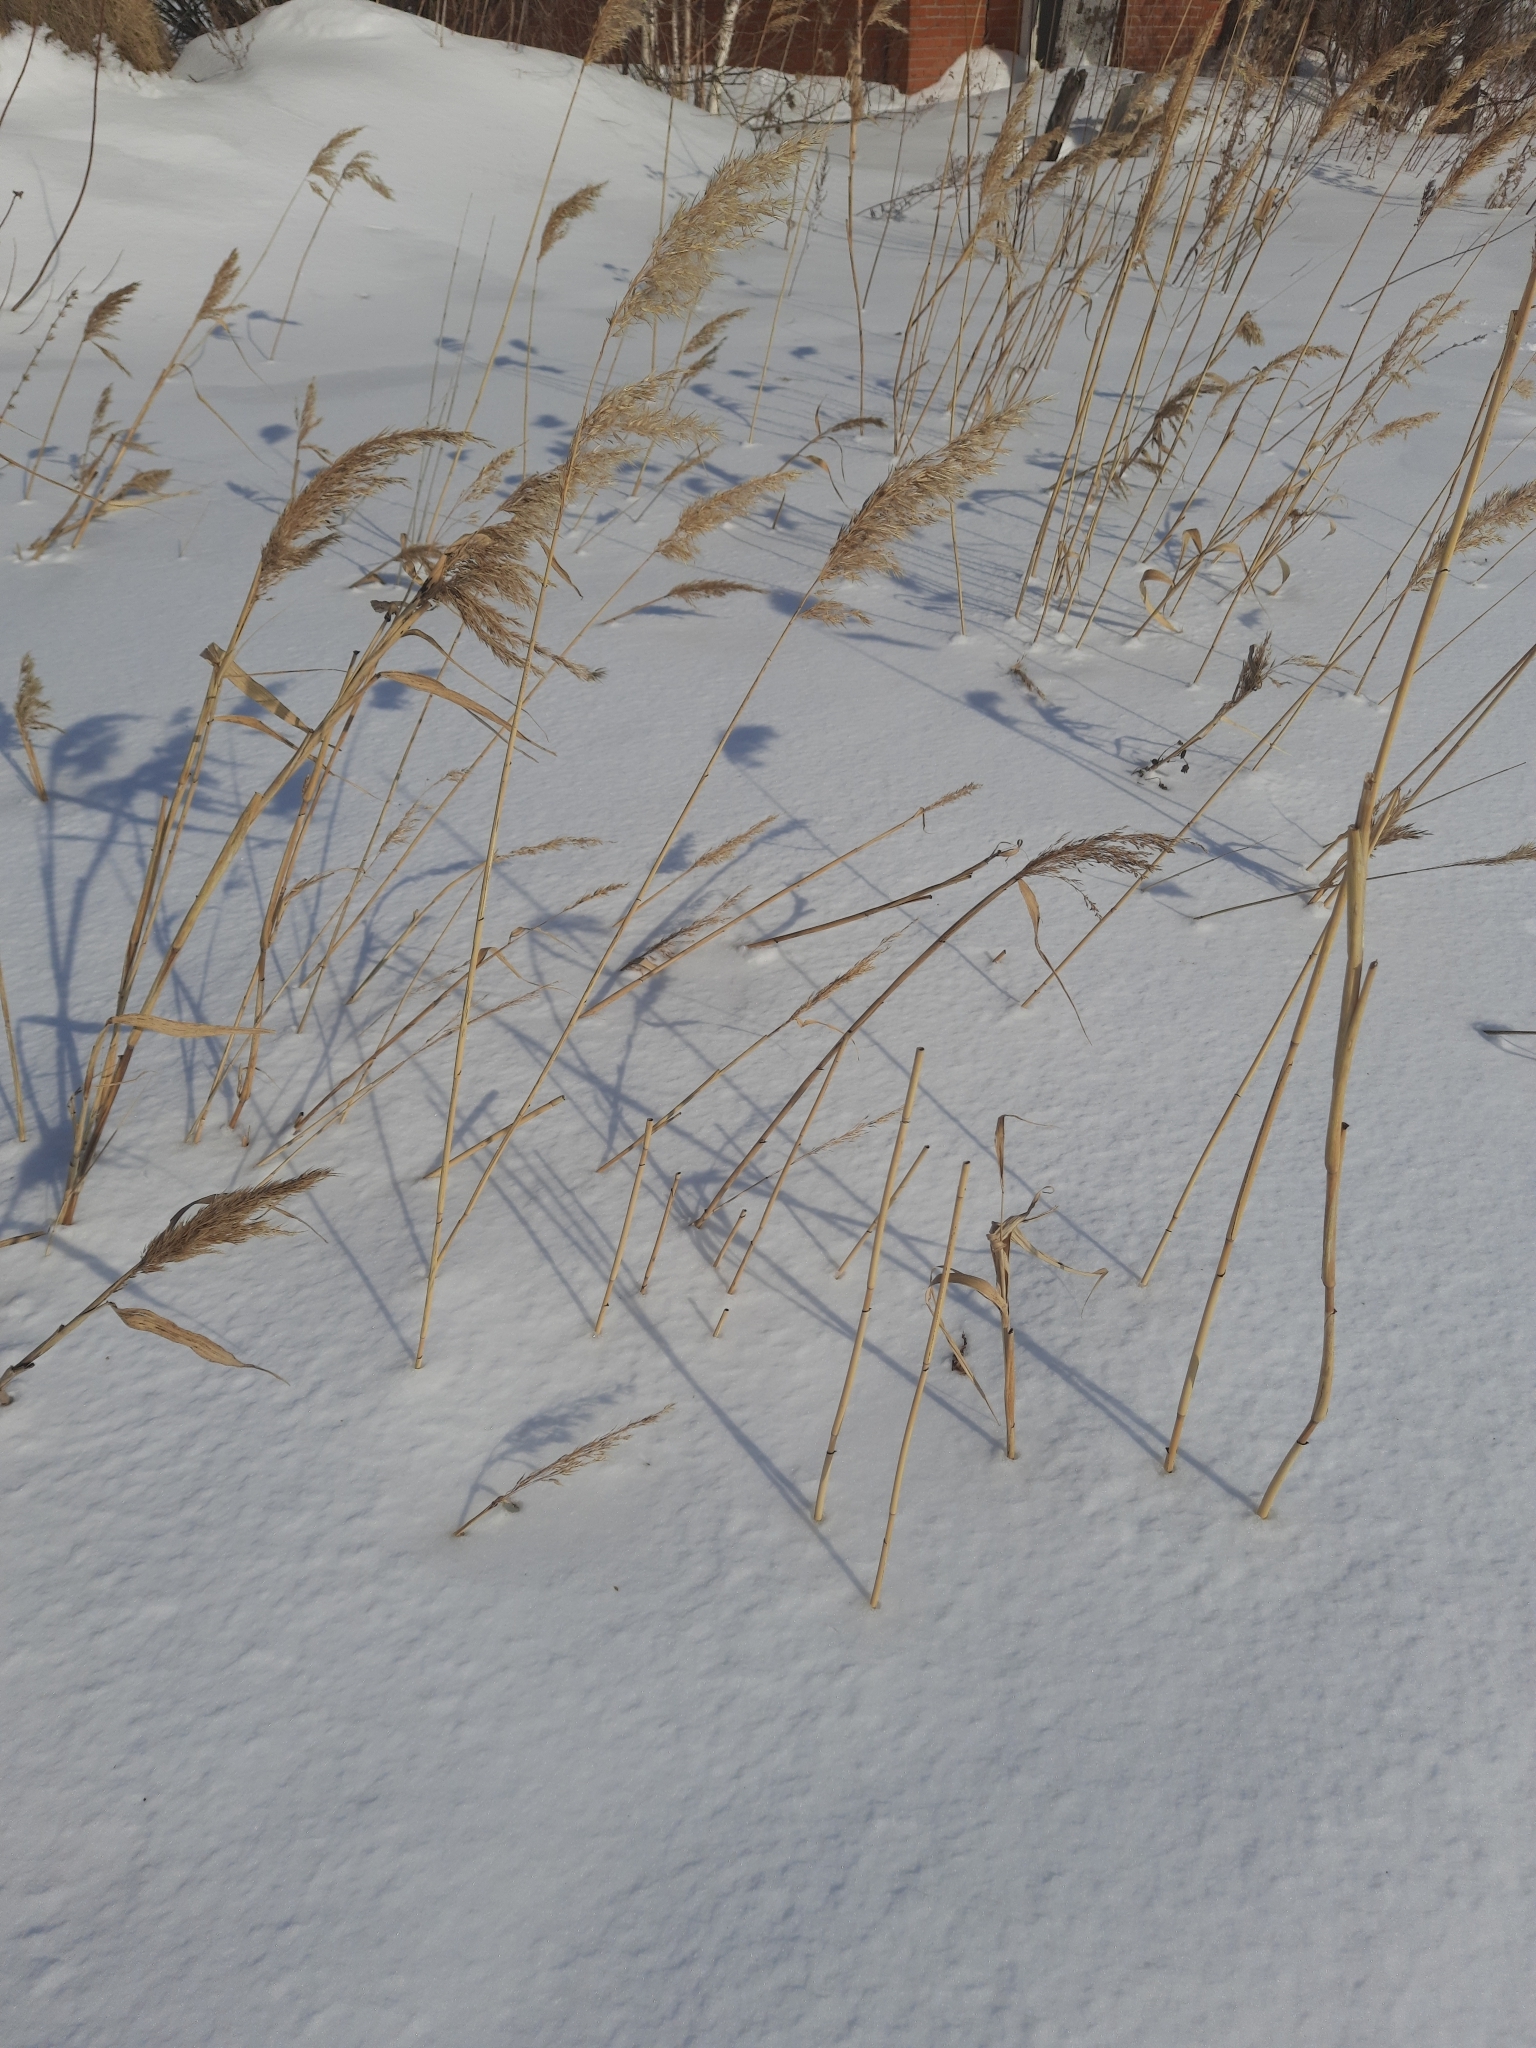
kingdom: Plantae
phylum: Tracheophyta
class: Liliopsida
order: Poales
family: Poaceae
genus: Phragmites
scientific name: Phragmites australis
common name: Common reed
